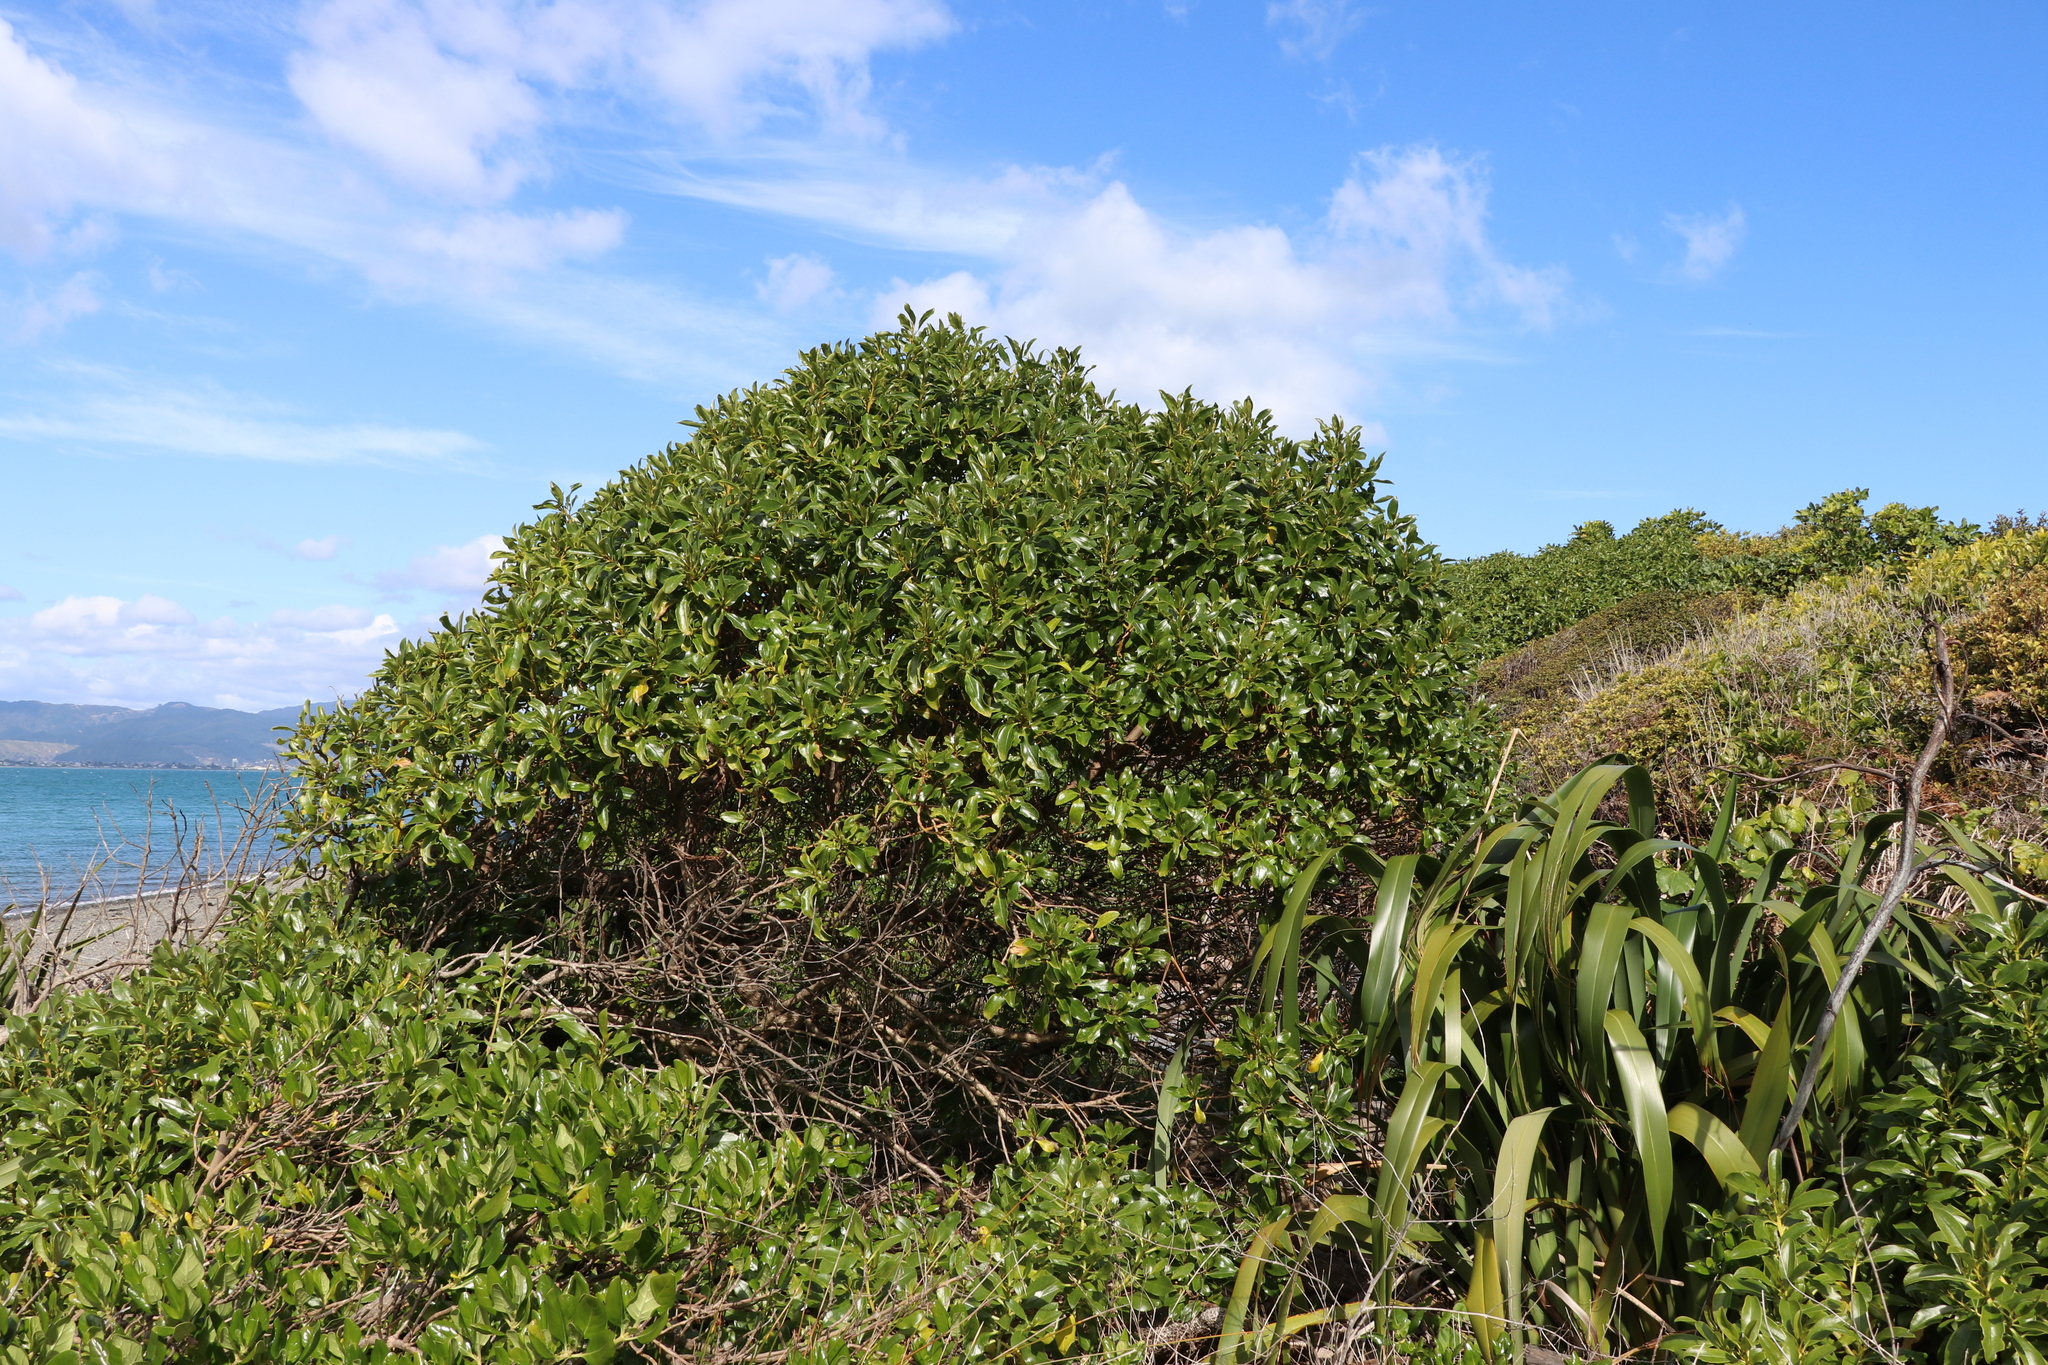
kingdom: Plantae
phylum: Tracheophyta
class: Magnoliopsida
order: Lamiales
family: Scrophulariaceae
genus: Myoporum
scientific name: Myoporum laetum
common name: Ngaio tree
